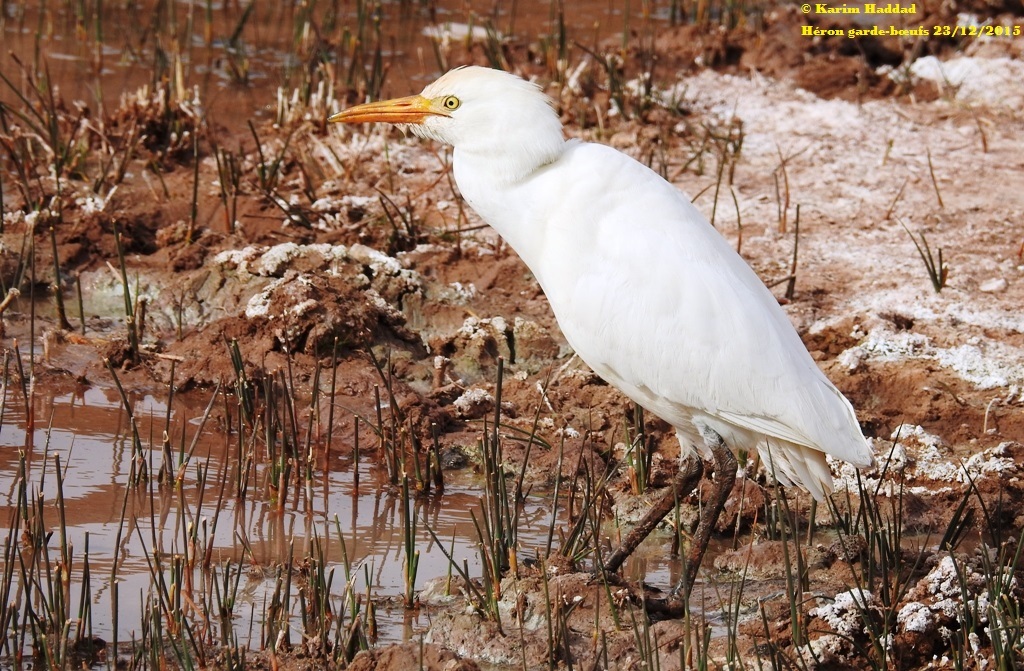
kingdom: Animalia
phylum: Chordata
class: Aves
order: Pelecaniformes
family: Ardeidae
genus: Bubulcus
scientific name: Bubulcus ibis
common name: Cattle egret
